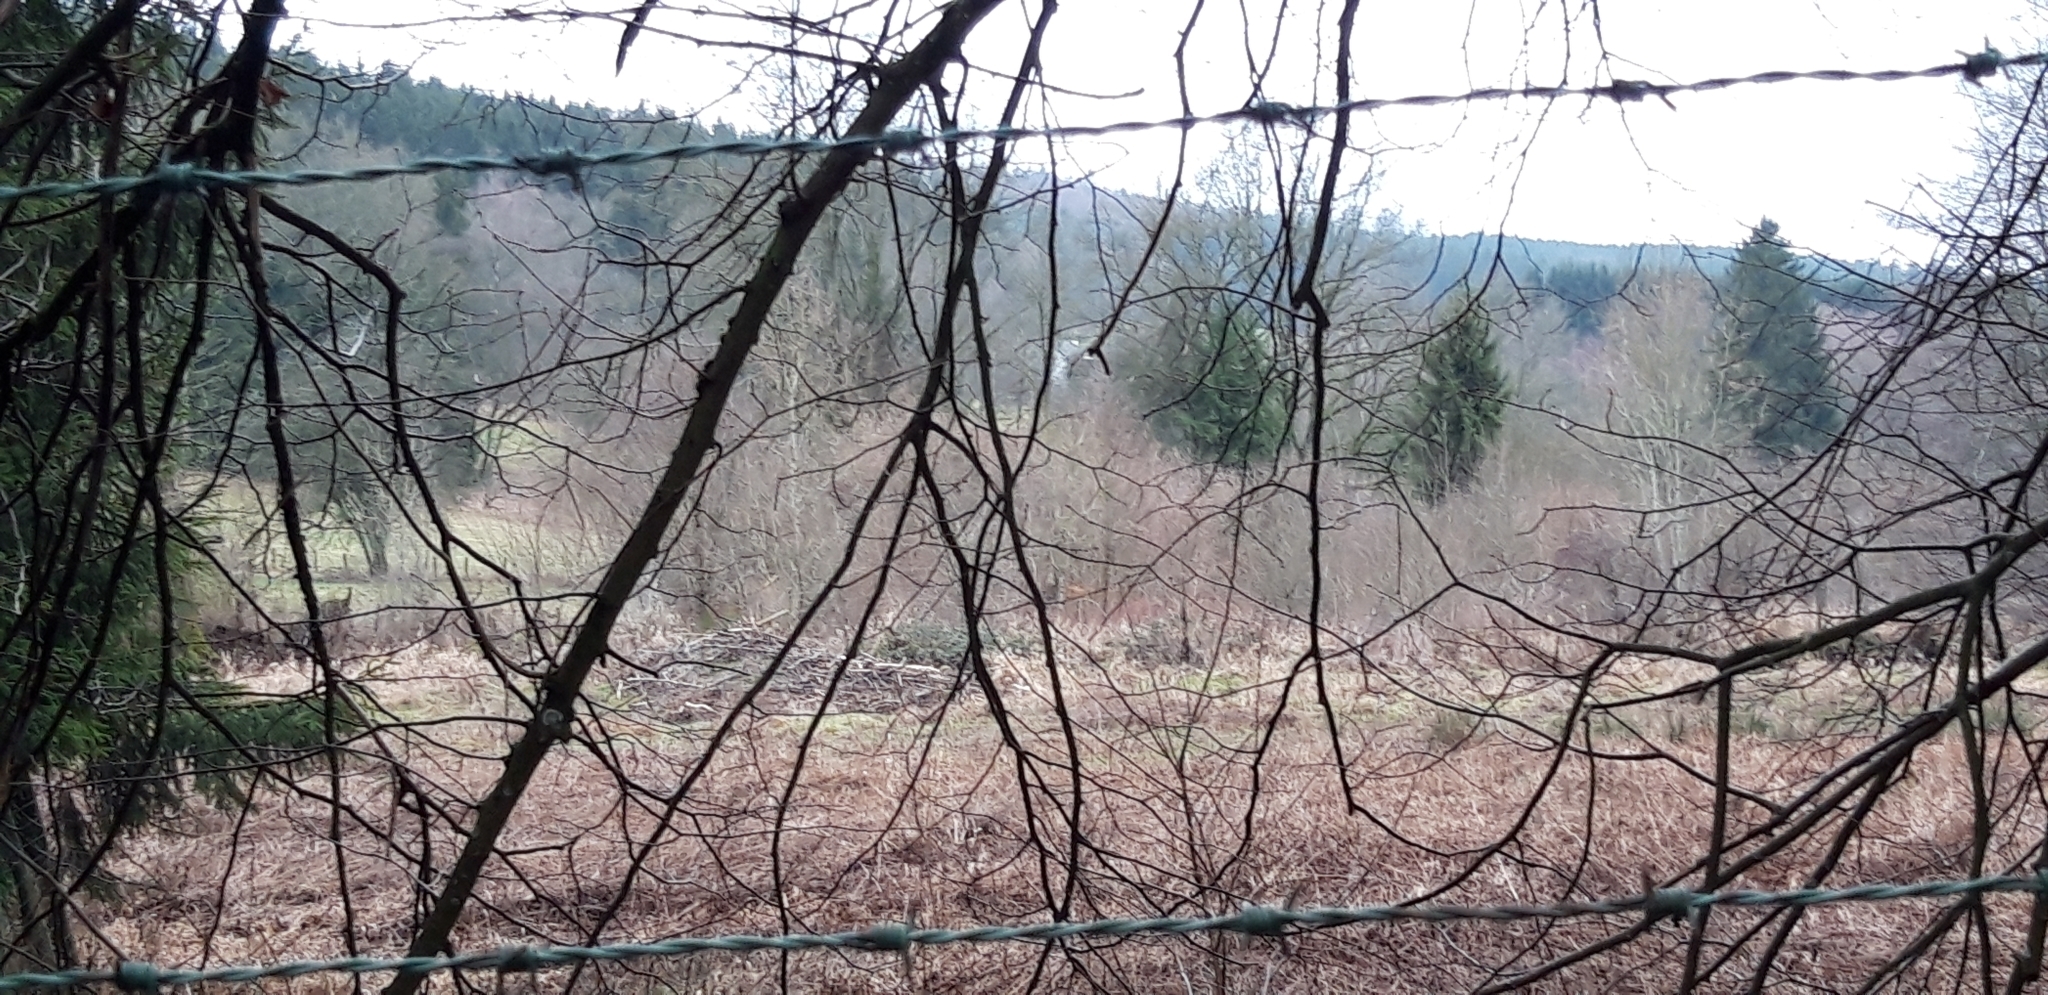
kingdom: Animalia
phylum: Chordata
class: Mammalia
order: Rodentia
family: Castoridae
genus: Castor
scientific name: Castor fiber
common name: Eurasian beaver
